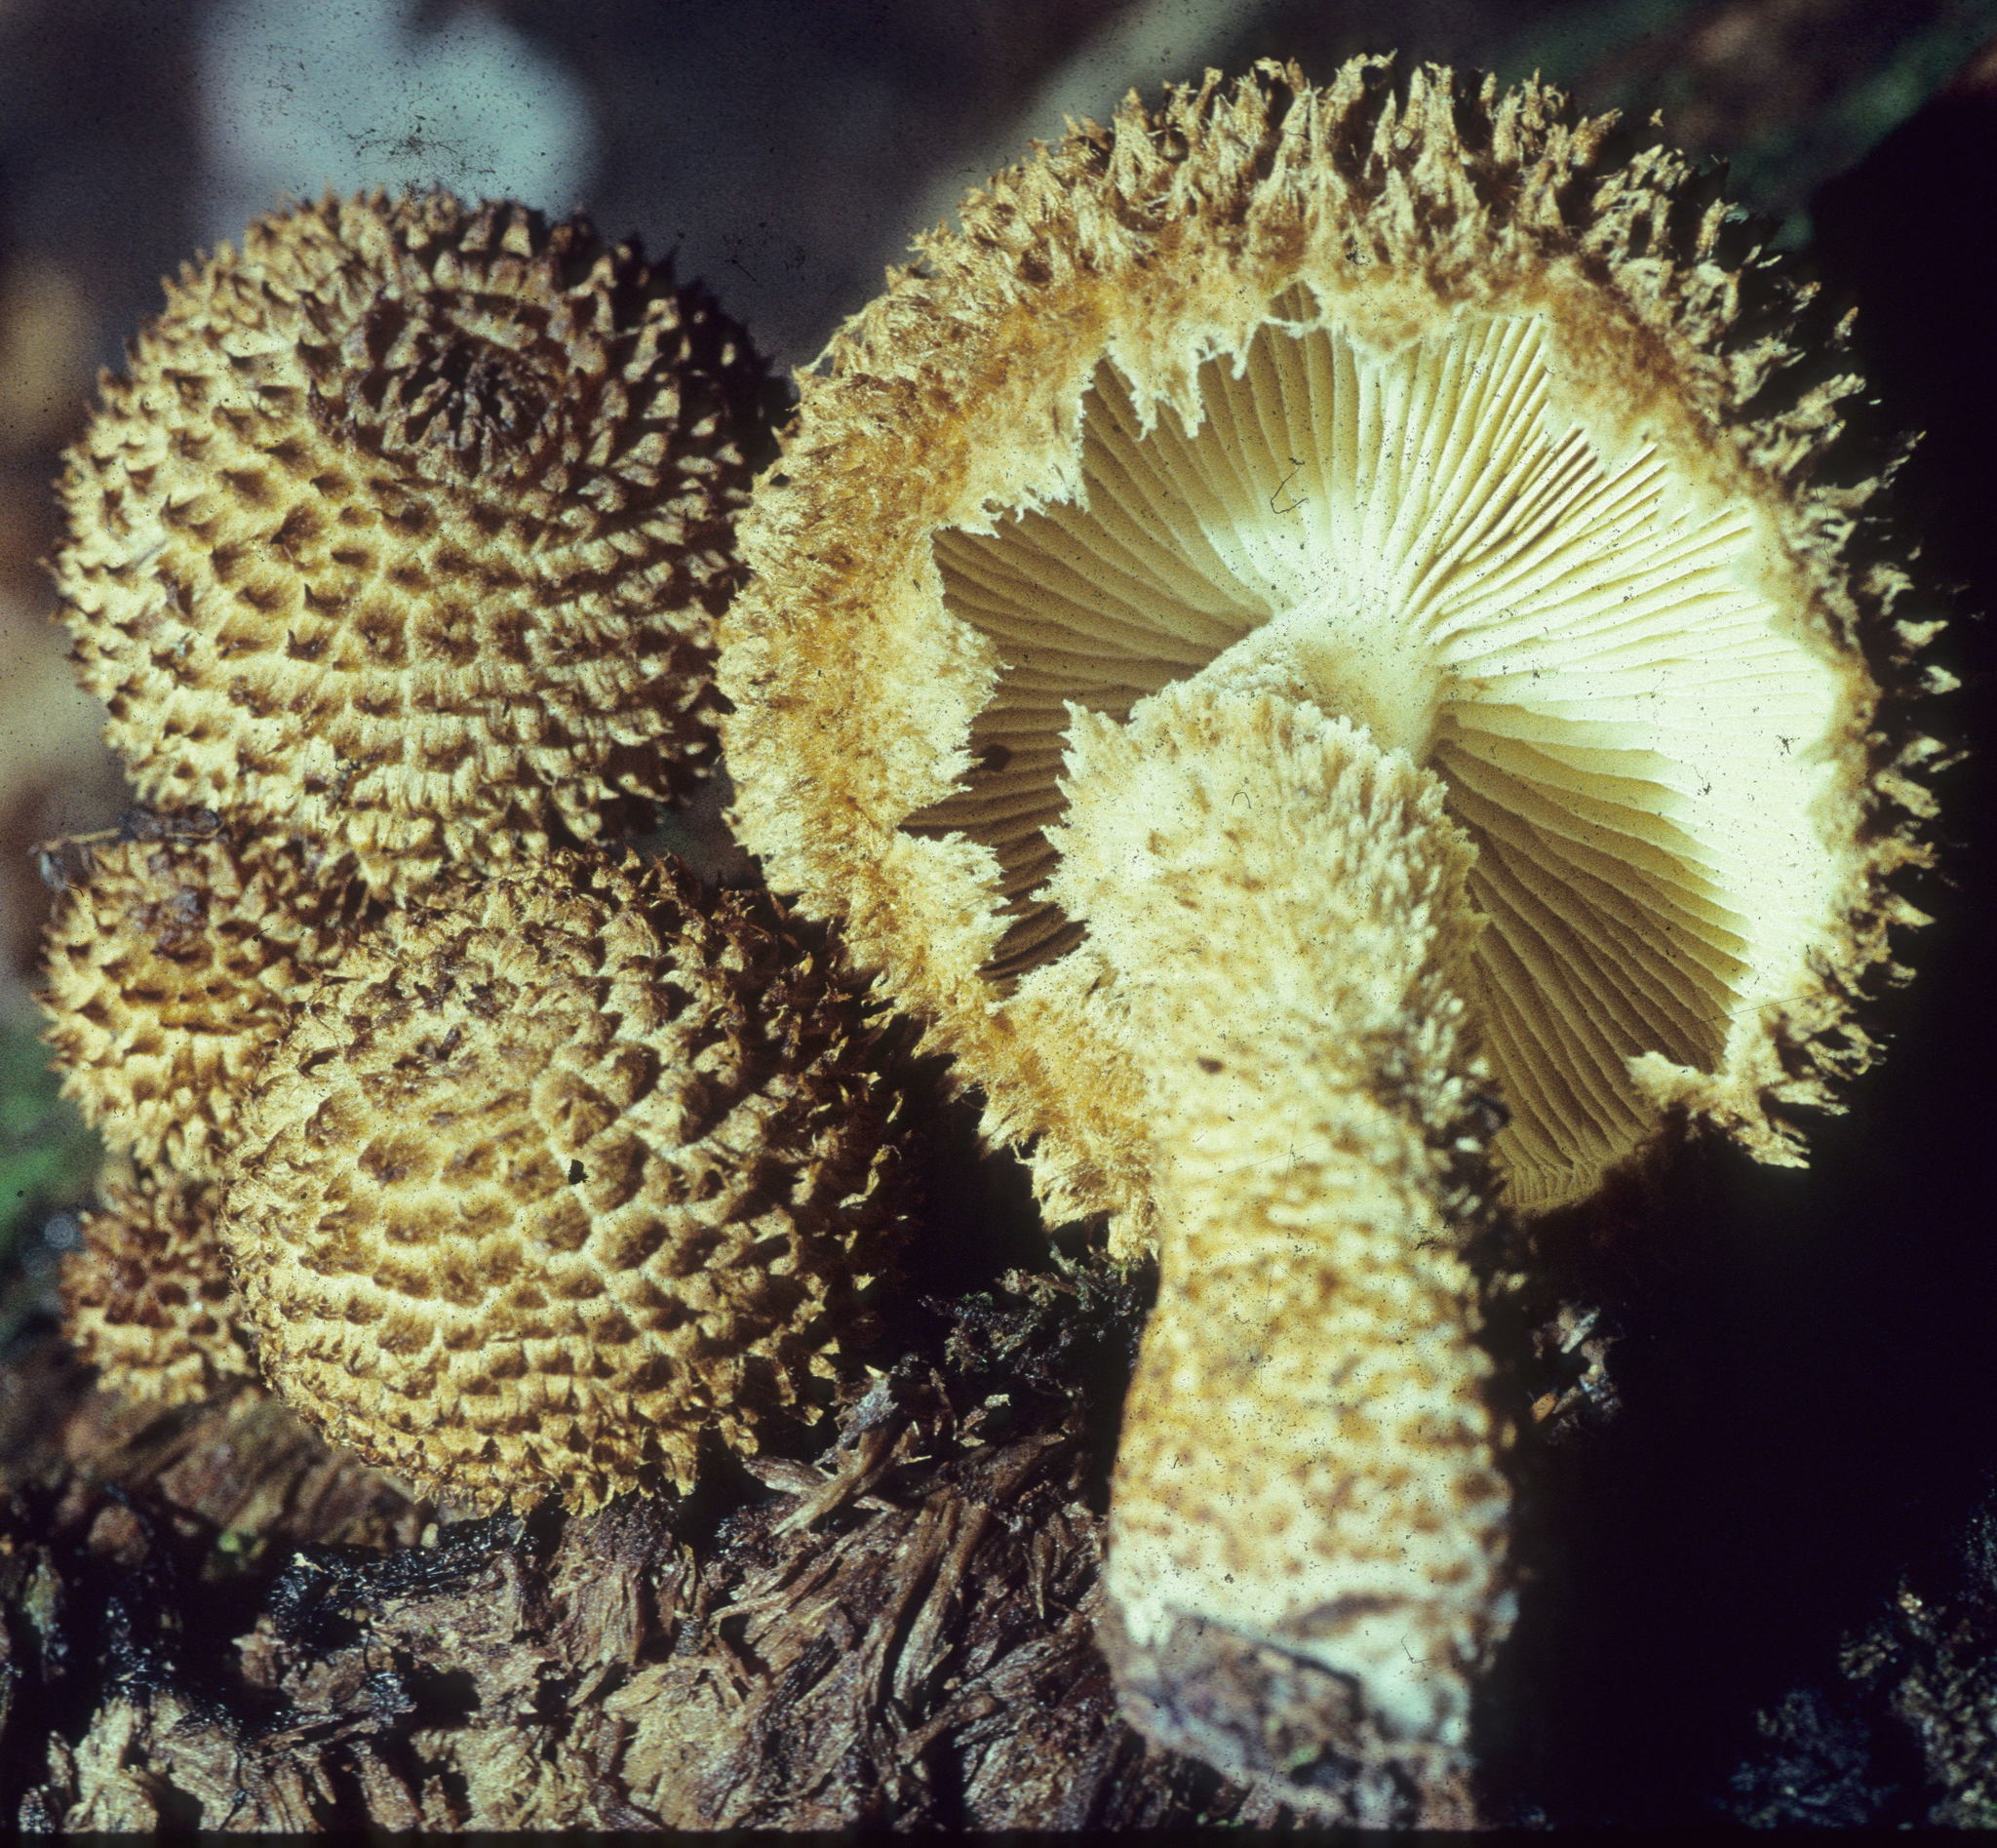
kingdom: Fungi
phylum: Basidiomycota
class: Agaricomycetes
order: Agaricales
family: Agaricaceae
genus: Leucopholiota
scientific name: Leucopholiota decorosa
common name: Decorated pholiota
